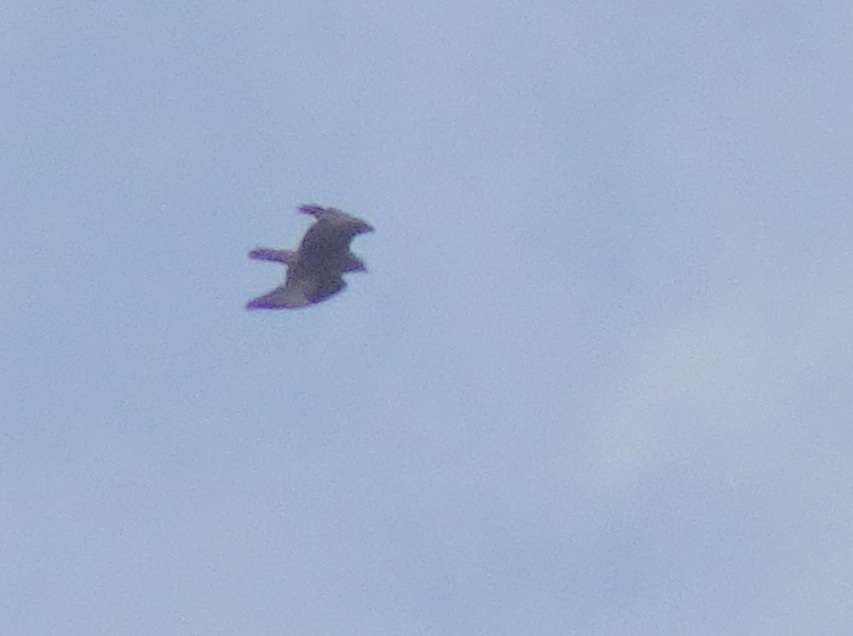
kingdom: Animalia
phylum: Chordata
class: Aves
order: Accipitriformes
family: Accipitridae
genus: Buteo
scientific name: Buteo buteo
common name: Common buzzard
